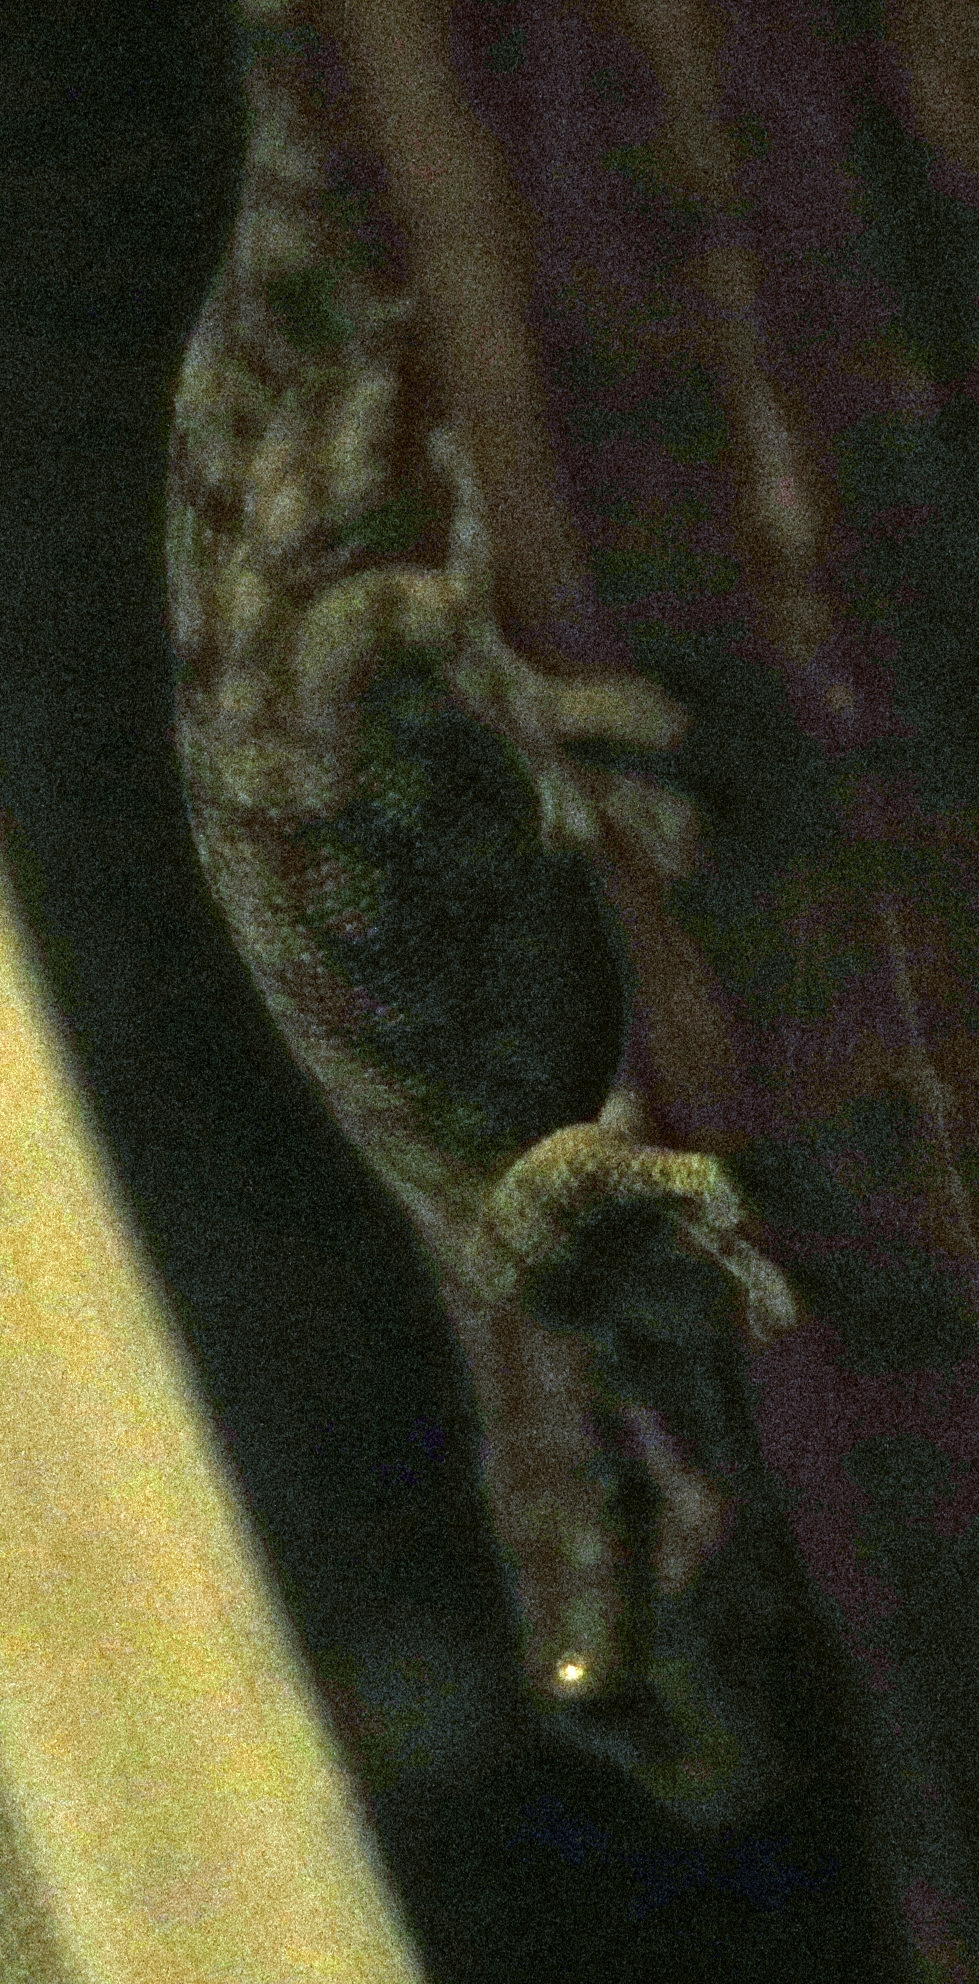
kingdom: Animalia
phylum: Chordata
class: Squamata
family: Gekkonidae
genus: Homopholis
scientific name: Homopholis walbergii
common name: Wahlberg’s velvet gecko
